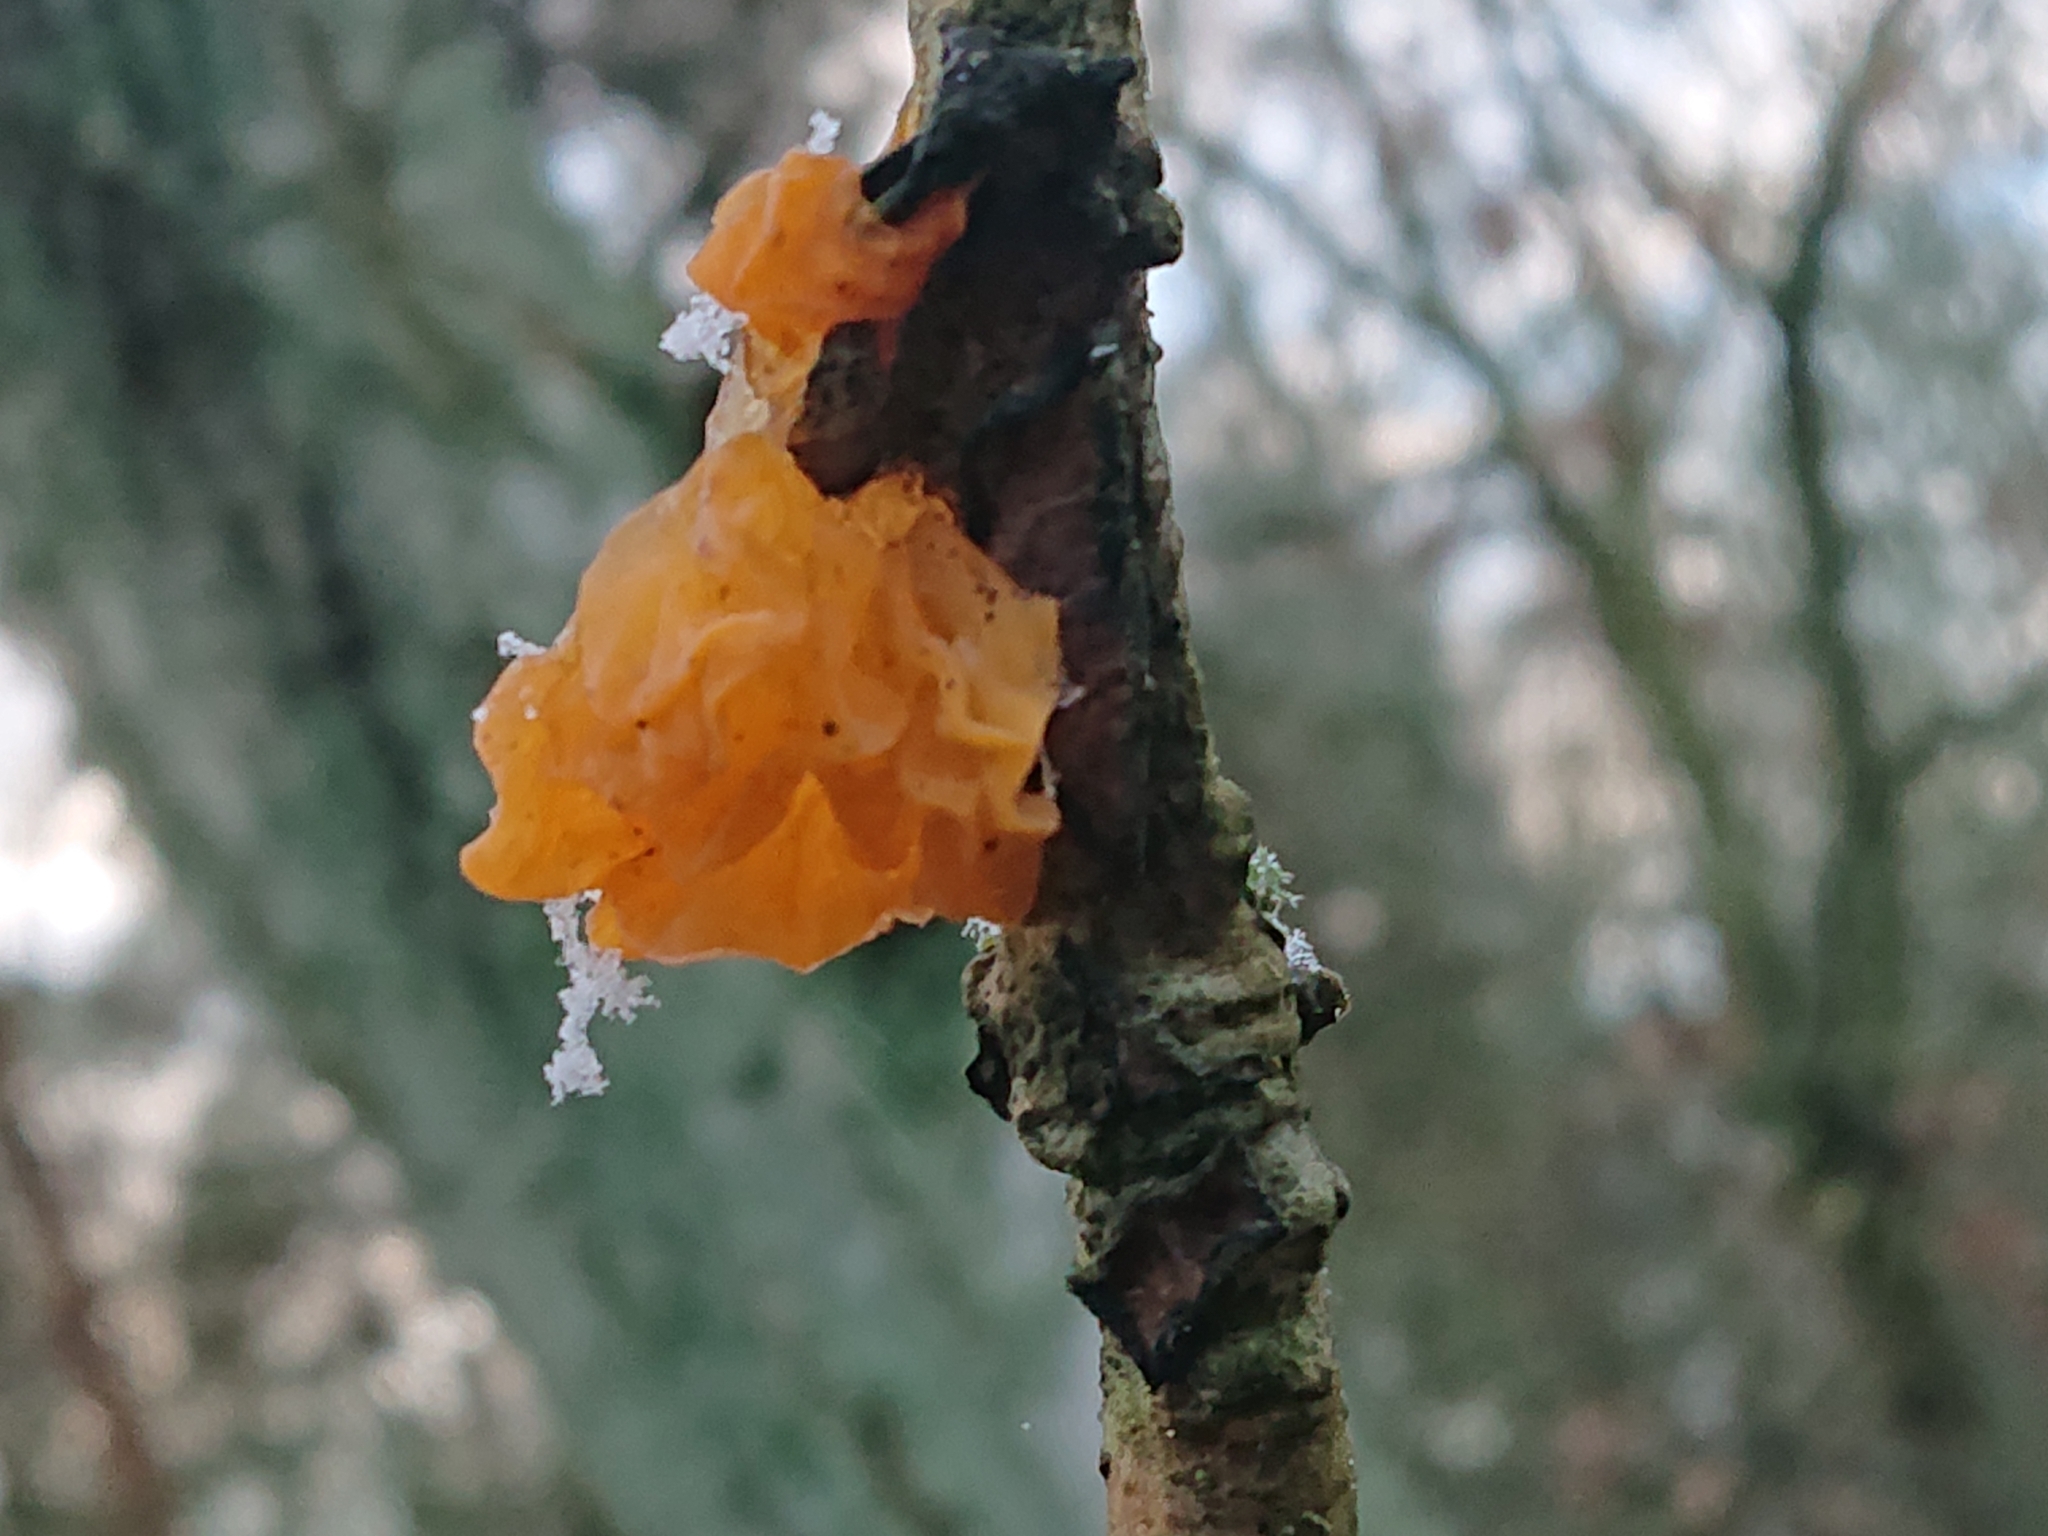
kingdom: Fungi
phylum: Basidiomycota
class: Tremellomycetes
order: Tremellales
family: Tremellaceae
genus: Tremella
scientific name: Tremella mesenterica
